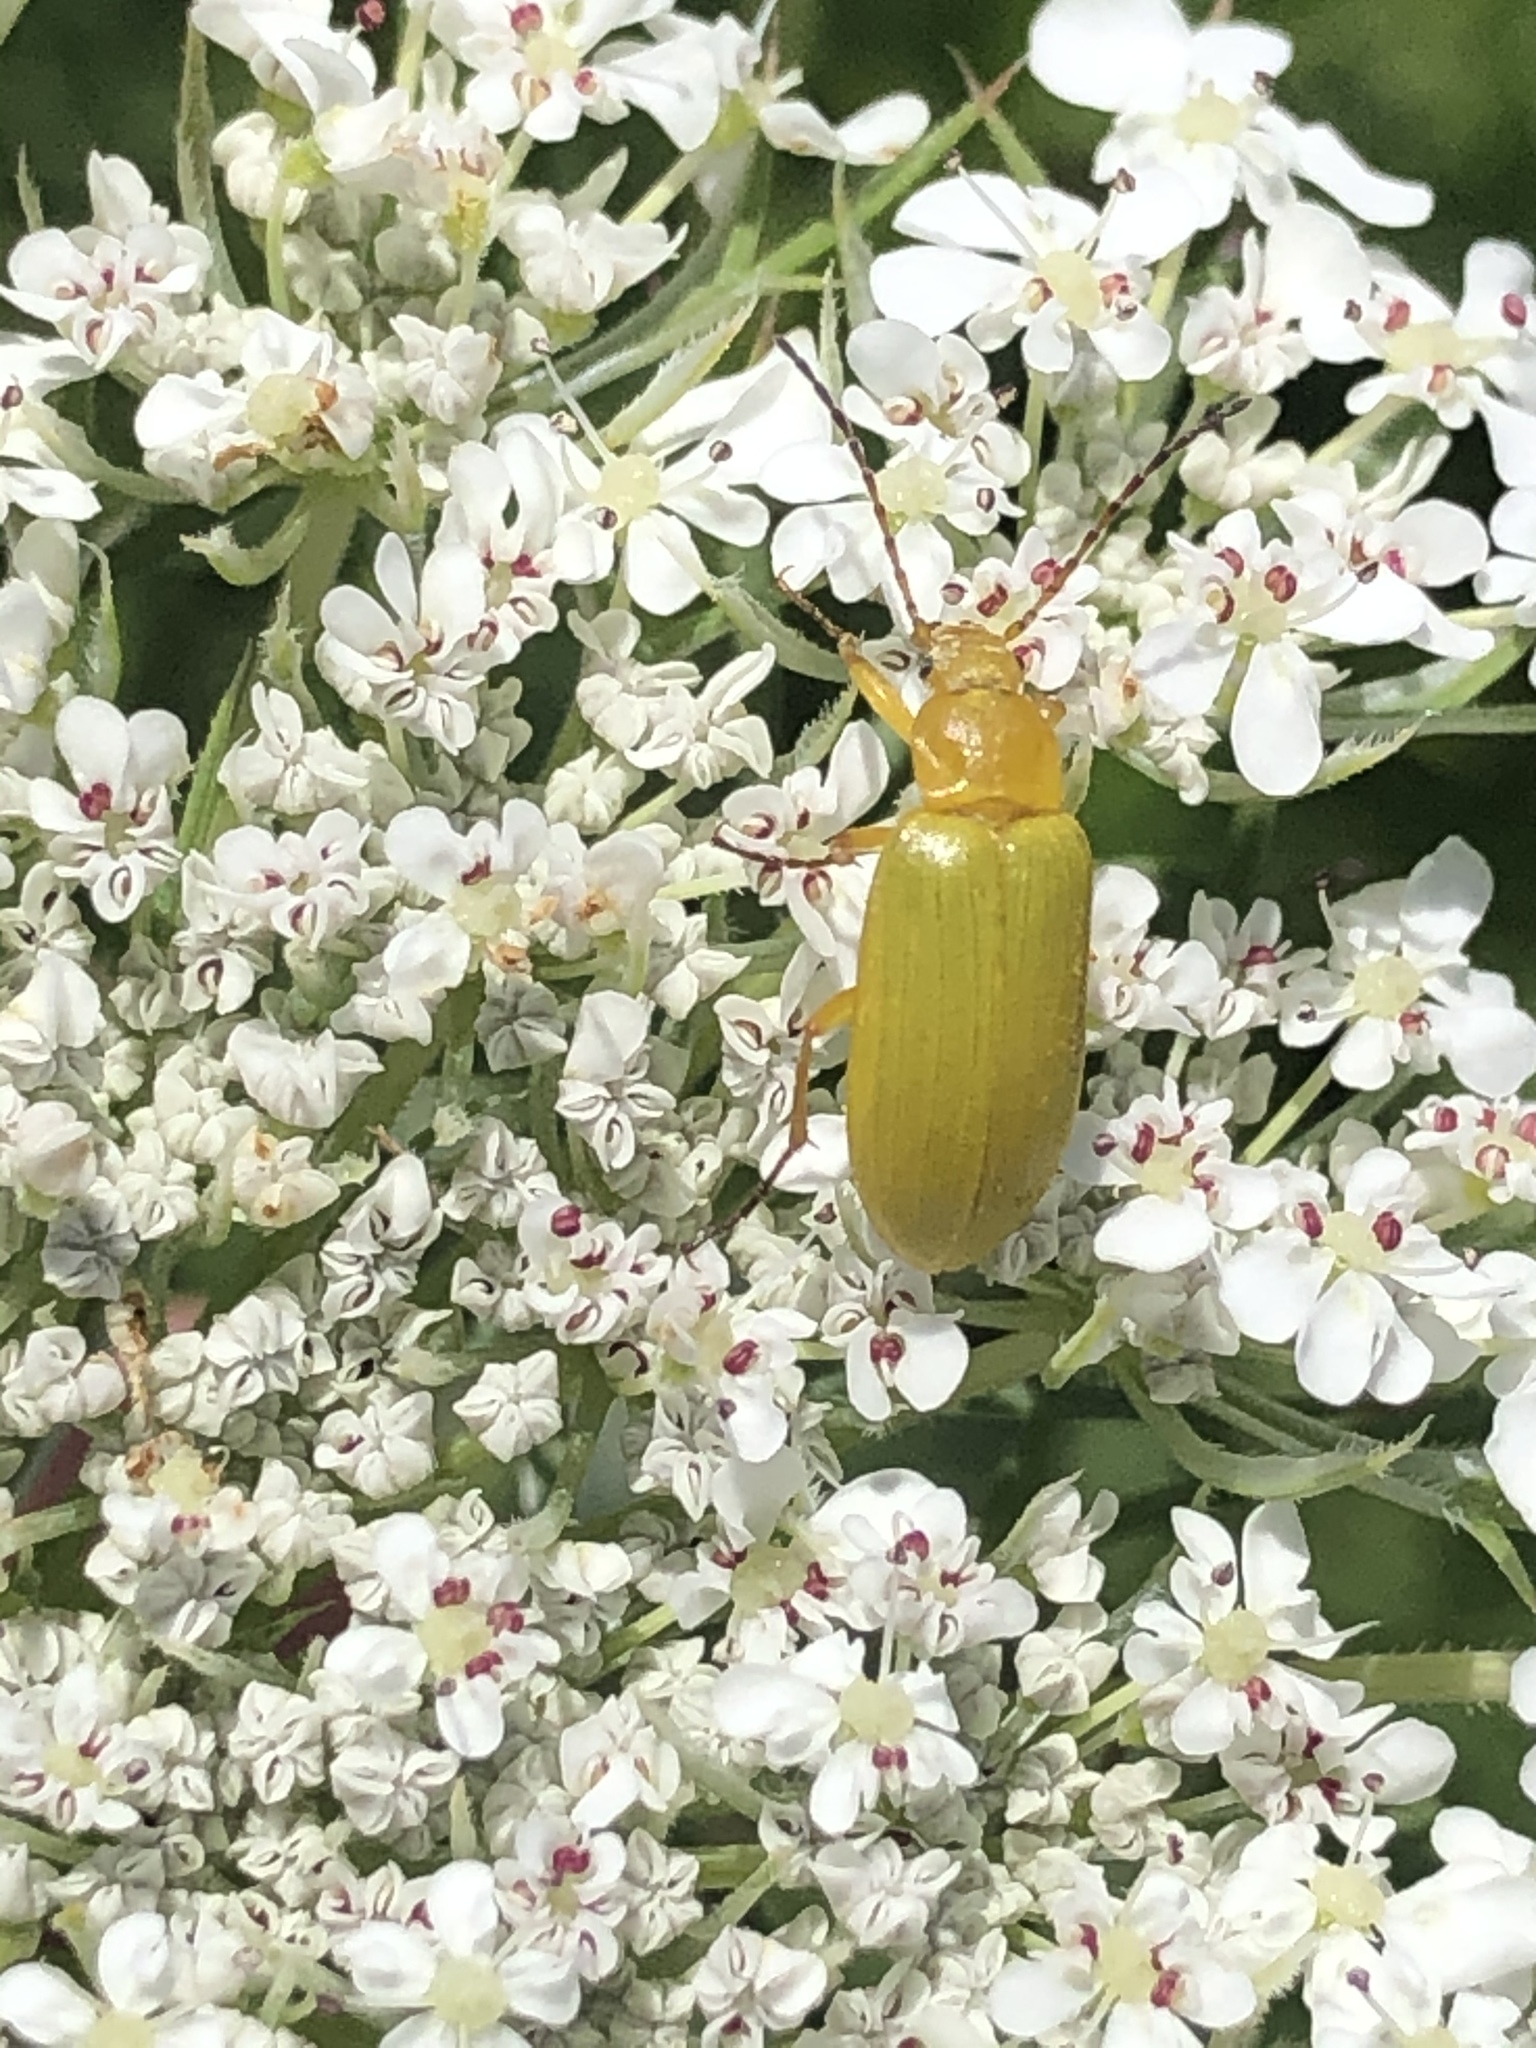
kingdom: Animalia
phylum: Arthropoda
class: Insecta
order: Coleoptera
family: Tenebrionidae
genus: Cteniopus
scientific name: Cteniopus sulphureus
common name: Sulphur beetle
